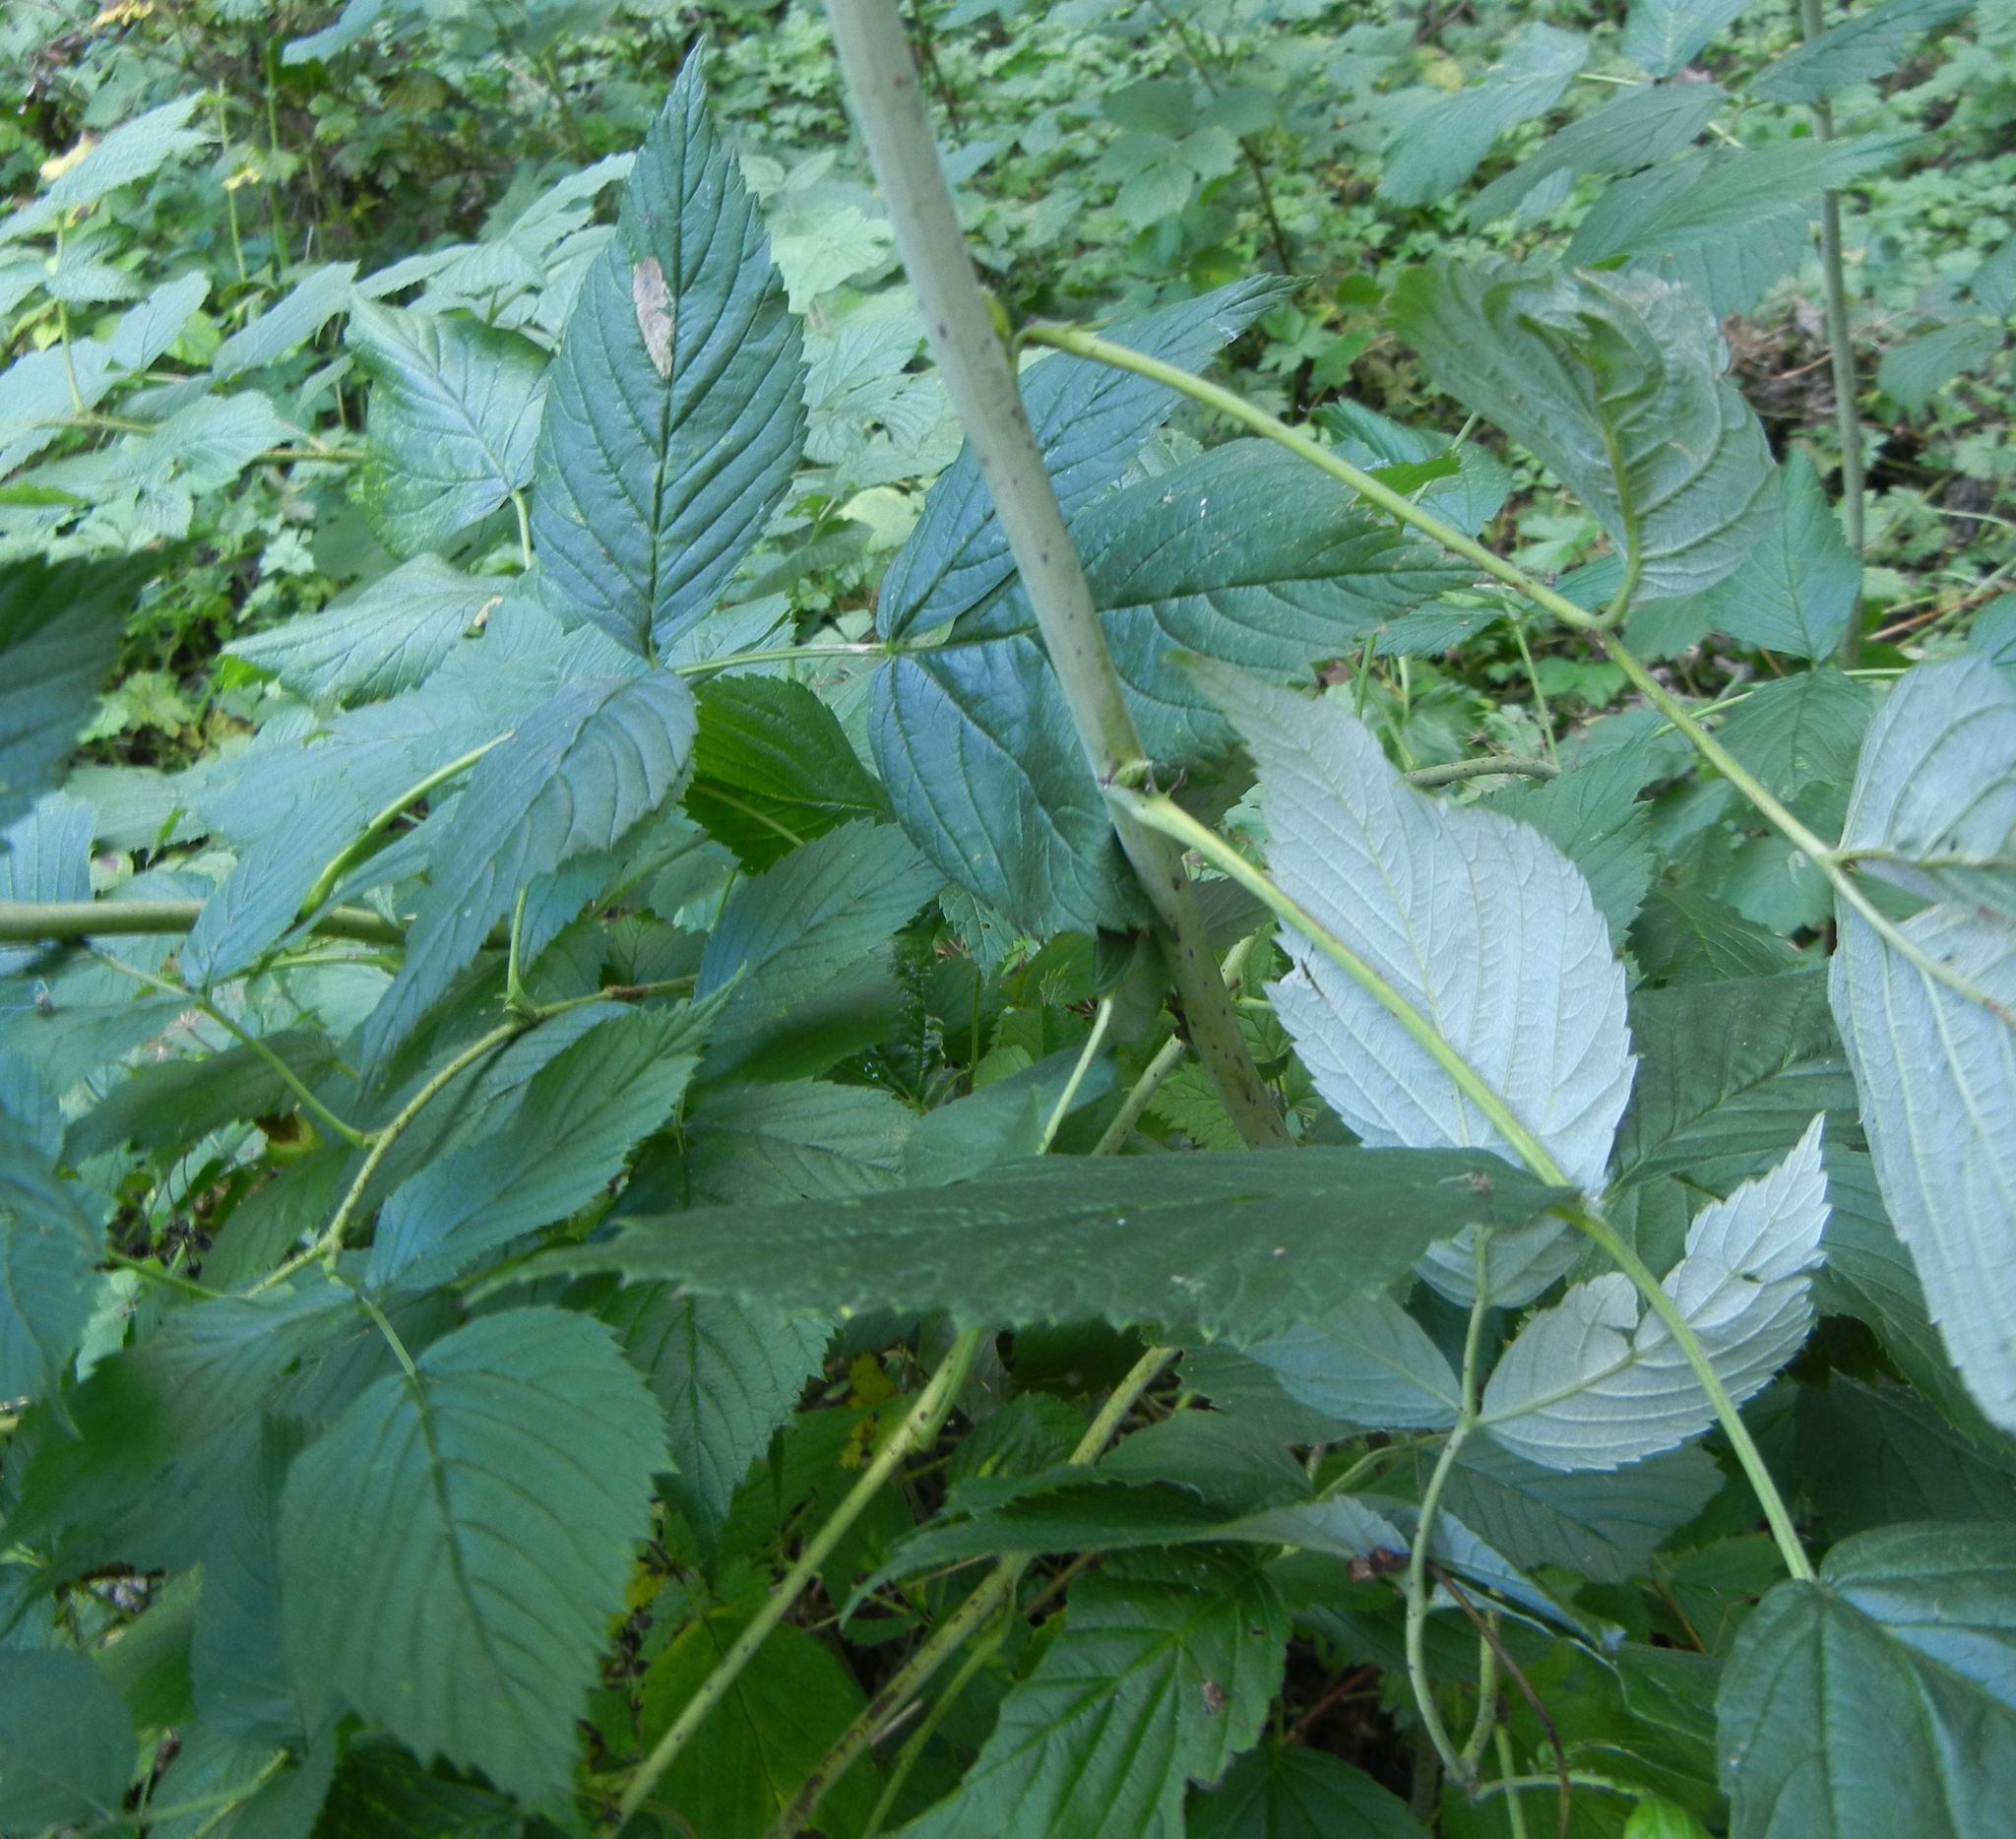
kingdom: Plantae
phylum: Tracheophyta
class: Magnoliopsida
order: Rosales
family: Rosaceae
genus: Rubus
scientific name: Rubus idaeus
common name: Raspberry
